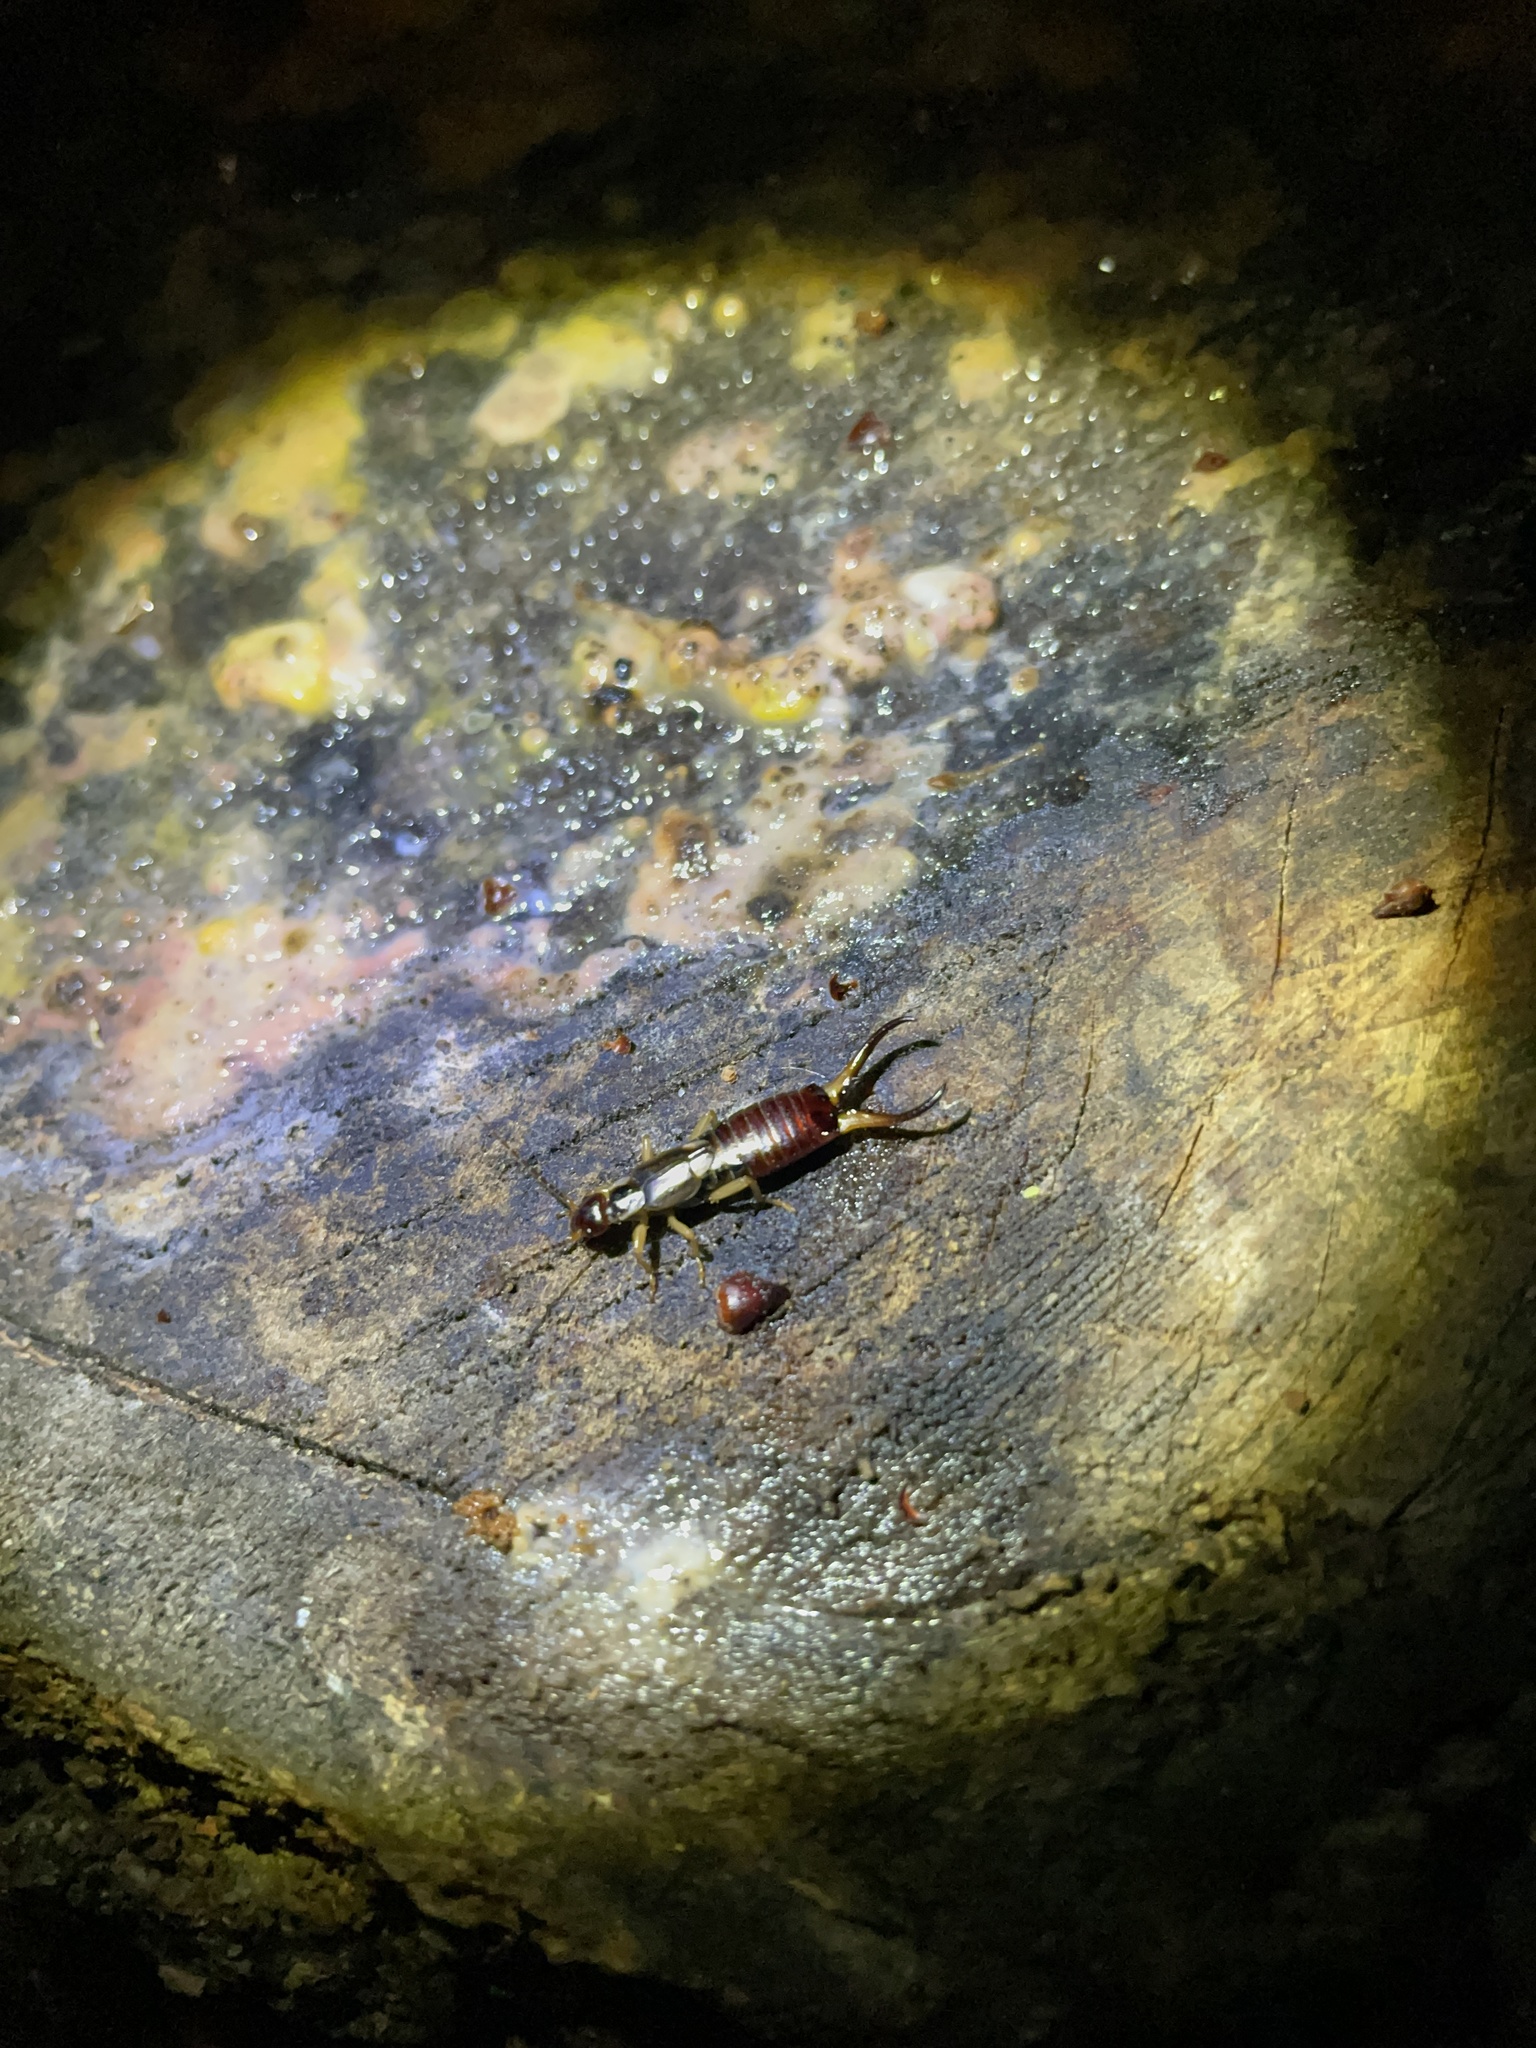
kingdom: Animalia
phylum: Arthropoda
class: Insecta
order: Dermaptera
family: Forficulidae
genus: Forficula
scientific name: Forficula
